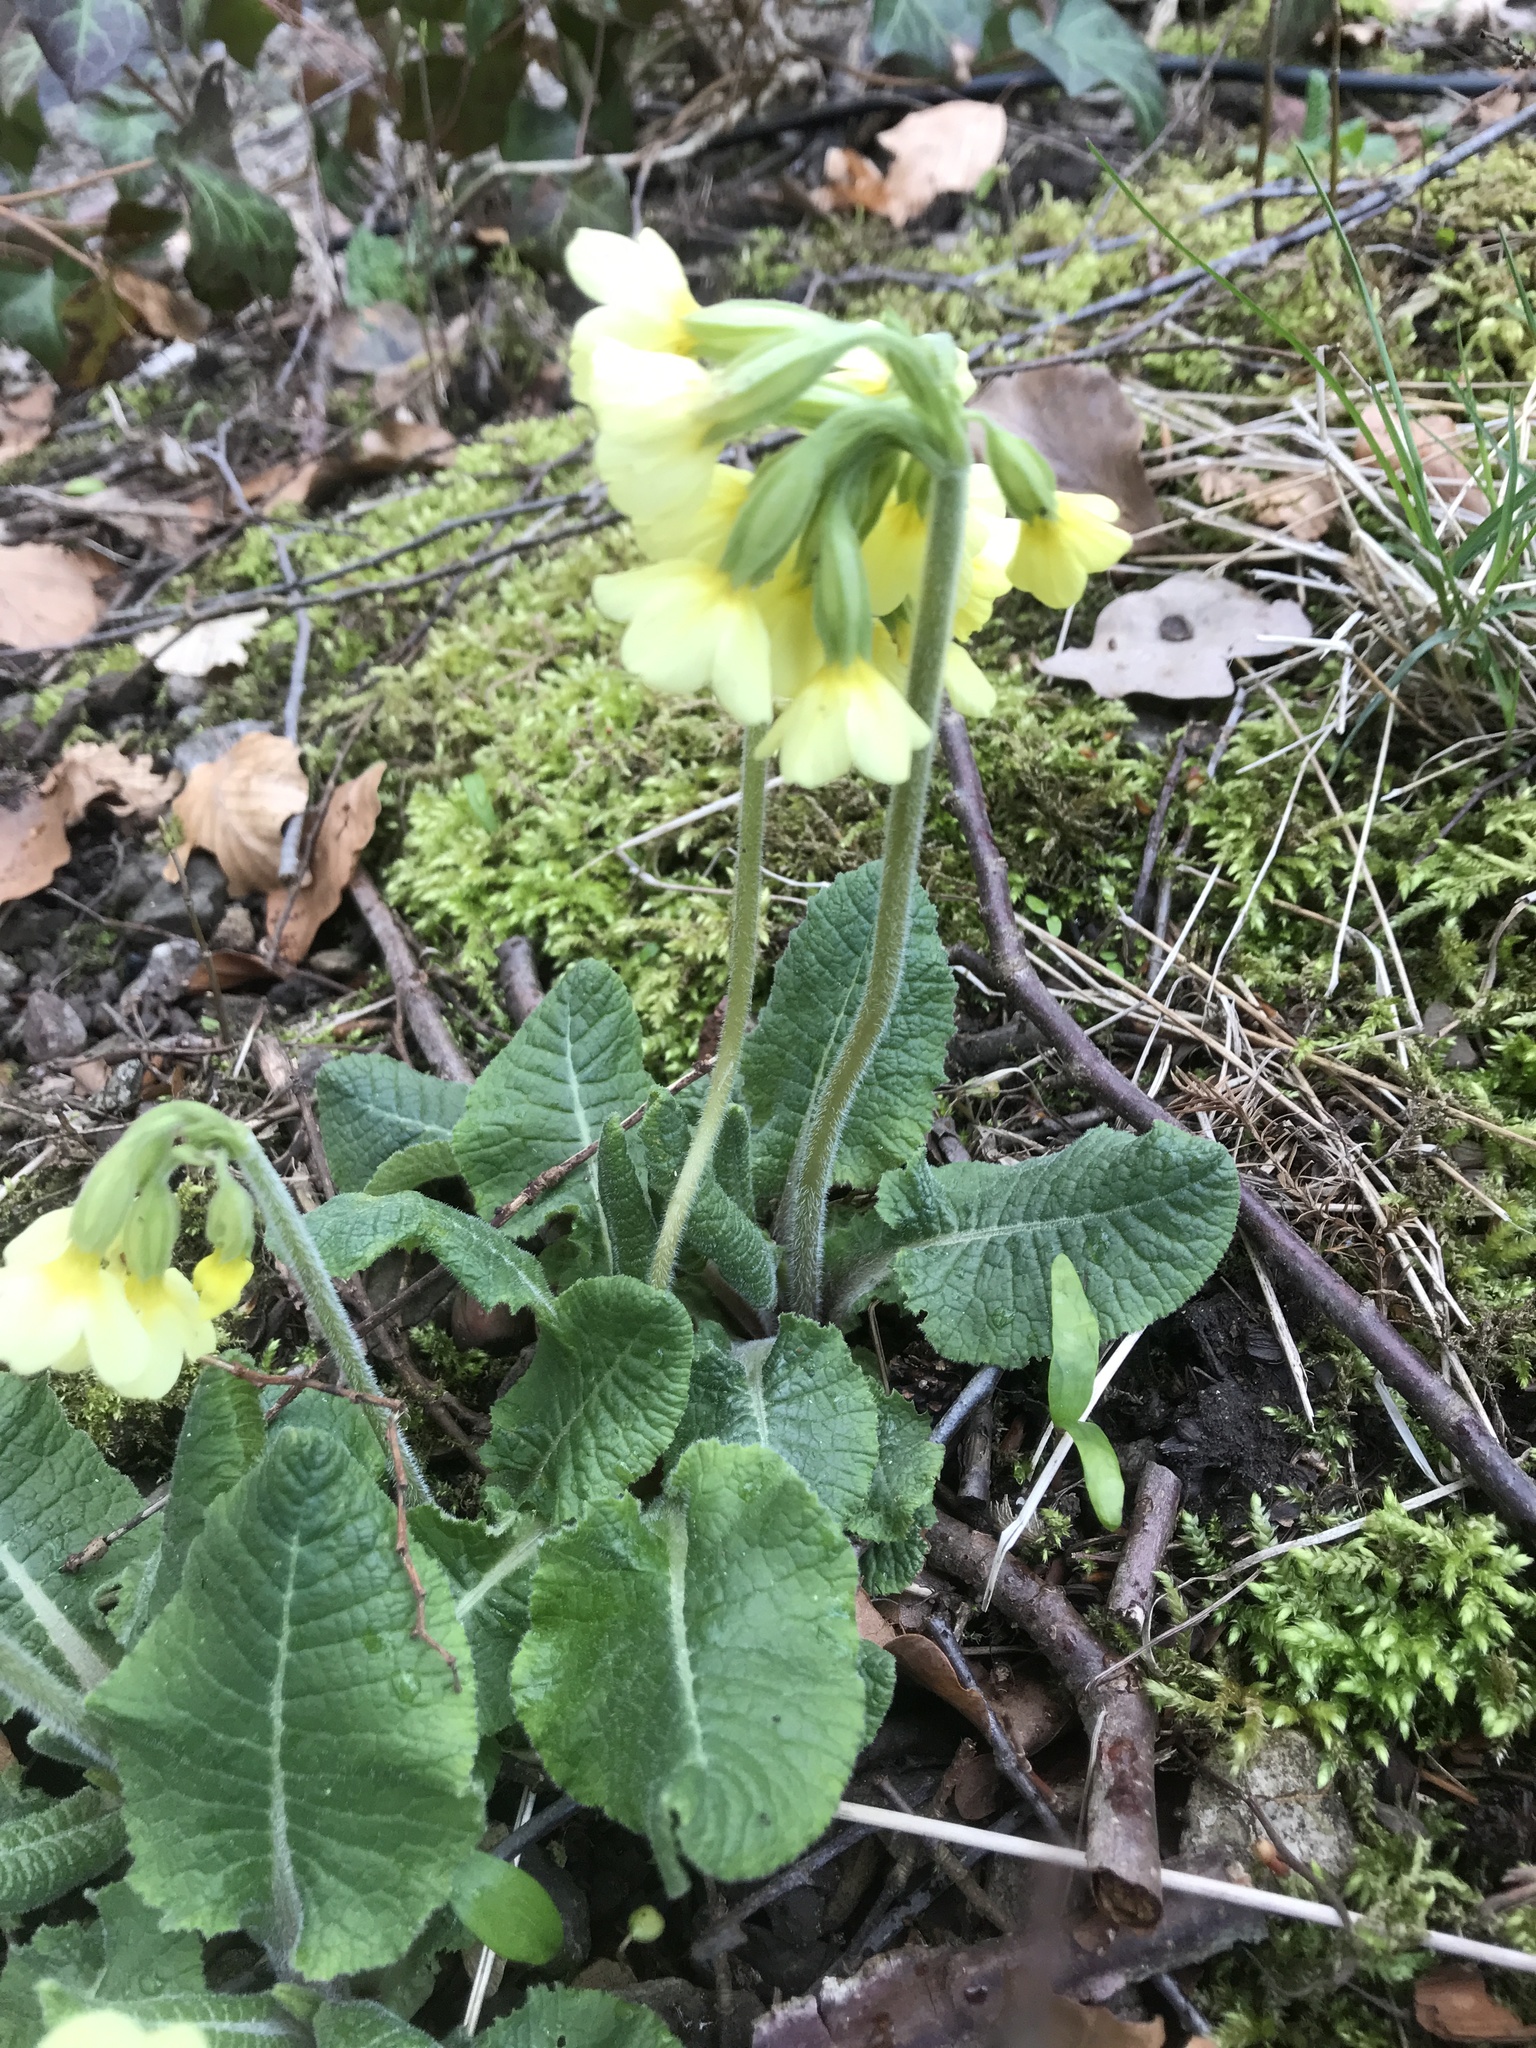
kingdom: Plantae
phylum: Tracheophyta
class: Magnoliopsida
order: Ericales
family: Primulaceae
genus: Primula
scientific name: Primula elatior
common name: Oxlip
